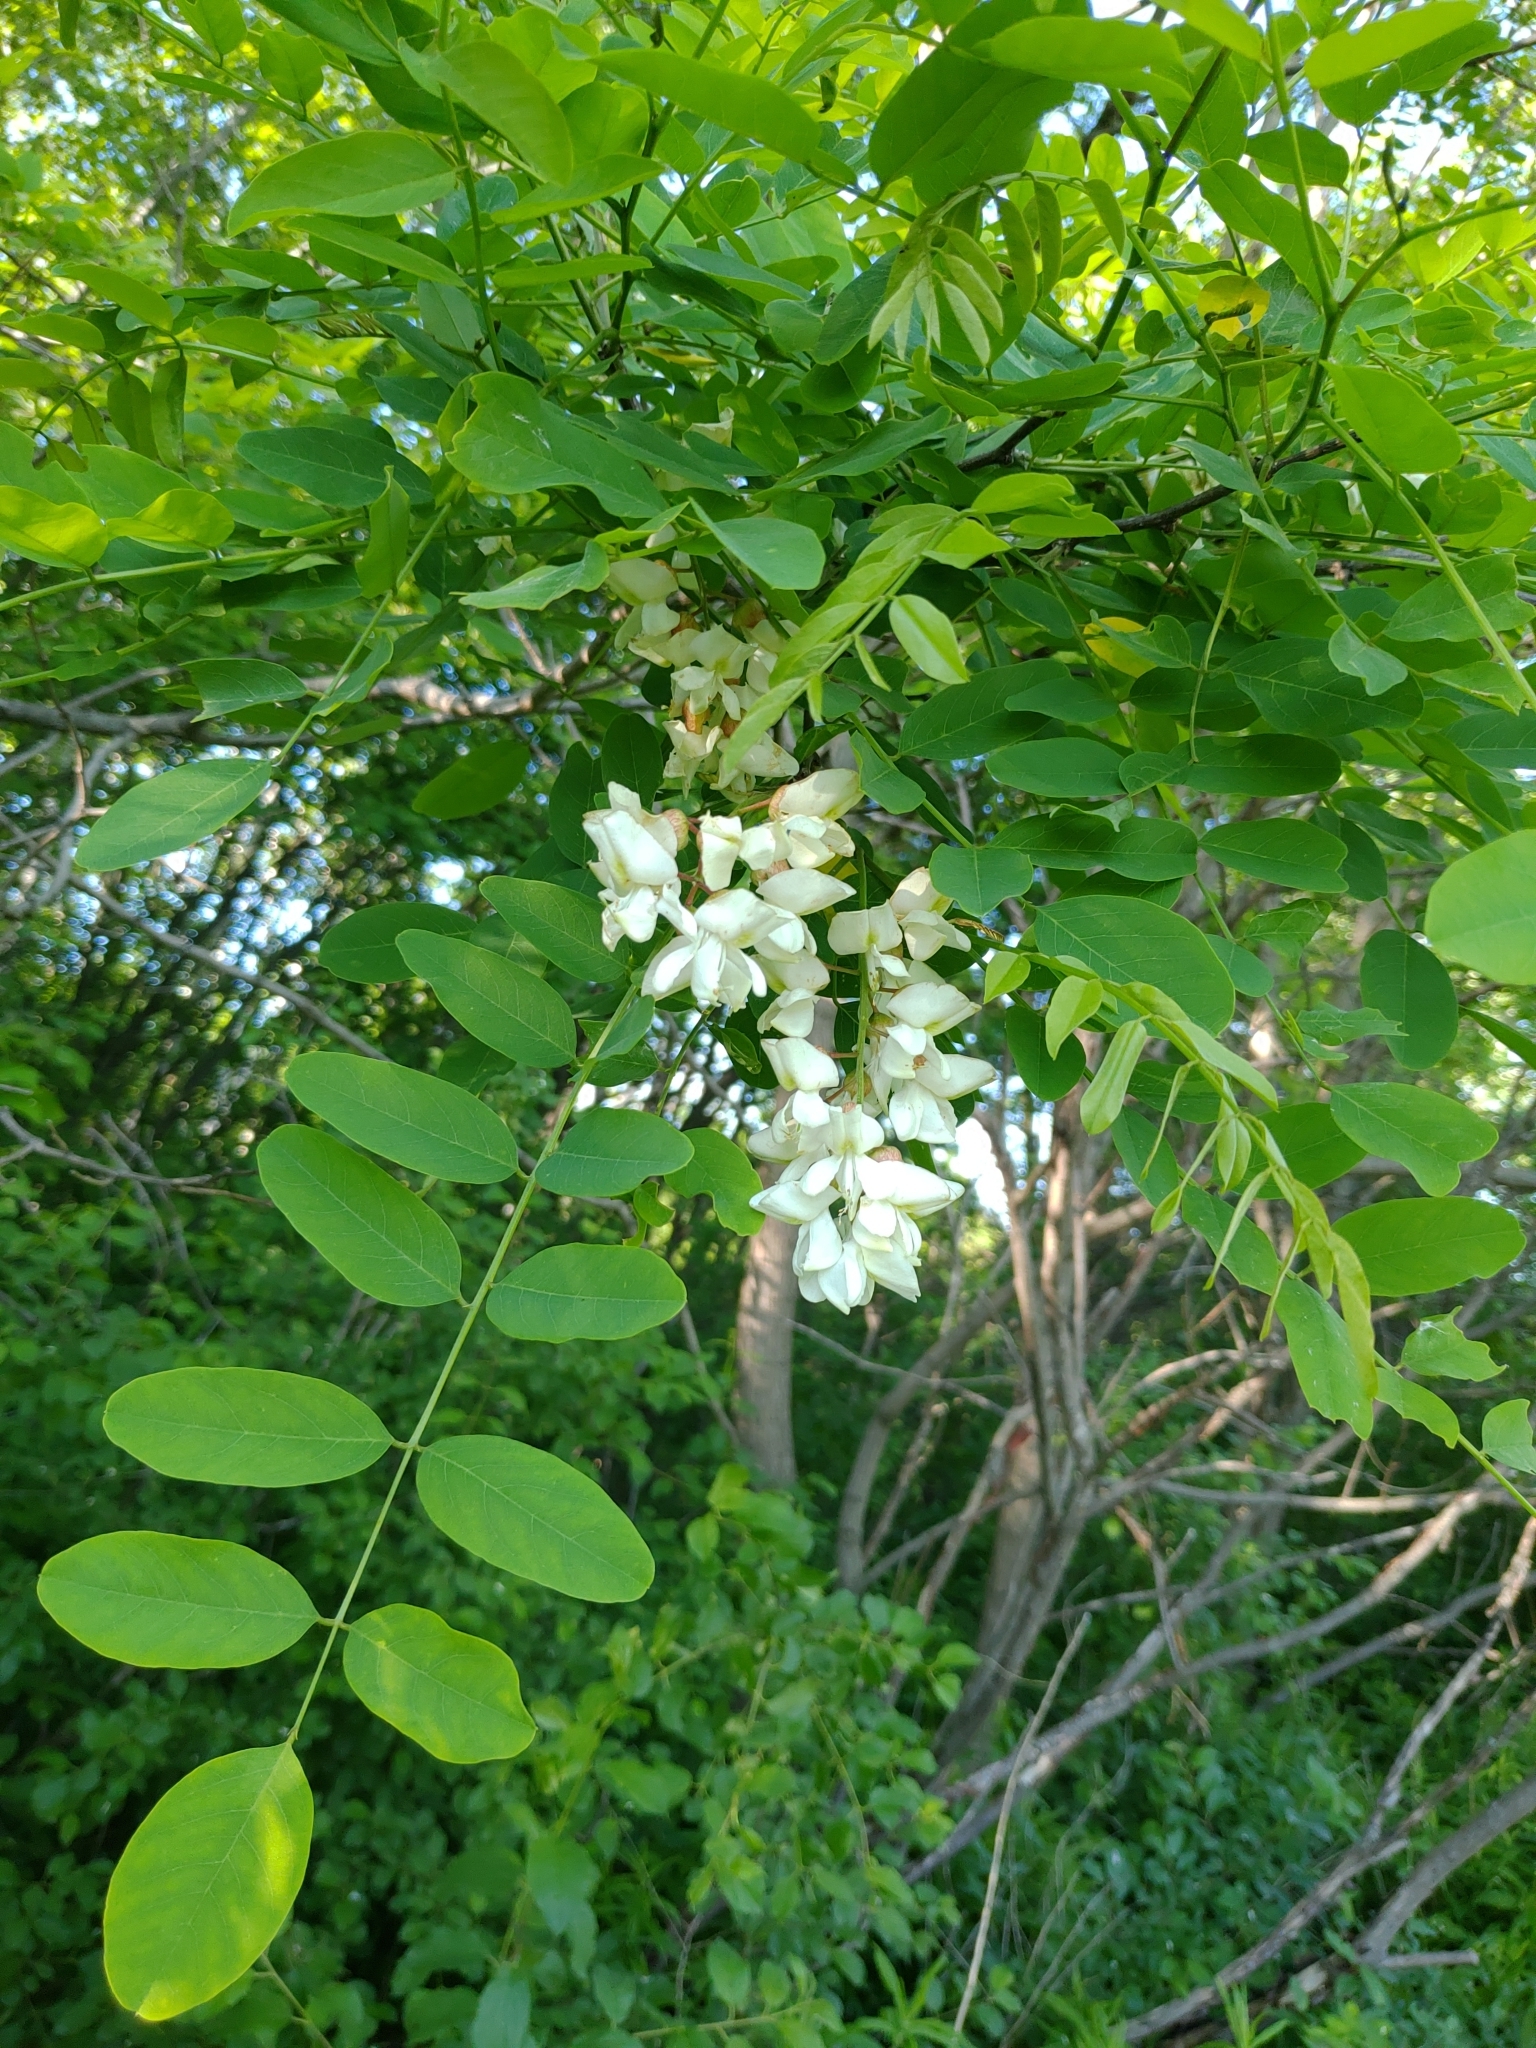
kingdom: Plantae
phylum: Tracheophyta
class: Magnoliopsida
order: Fabales
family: Fabaceae
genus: Robinia
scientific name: Robinia pseudoacacia
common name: Black locust
